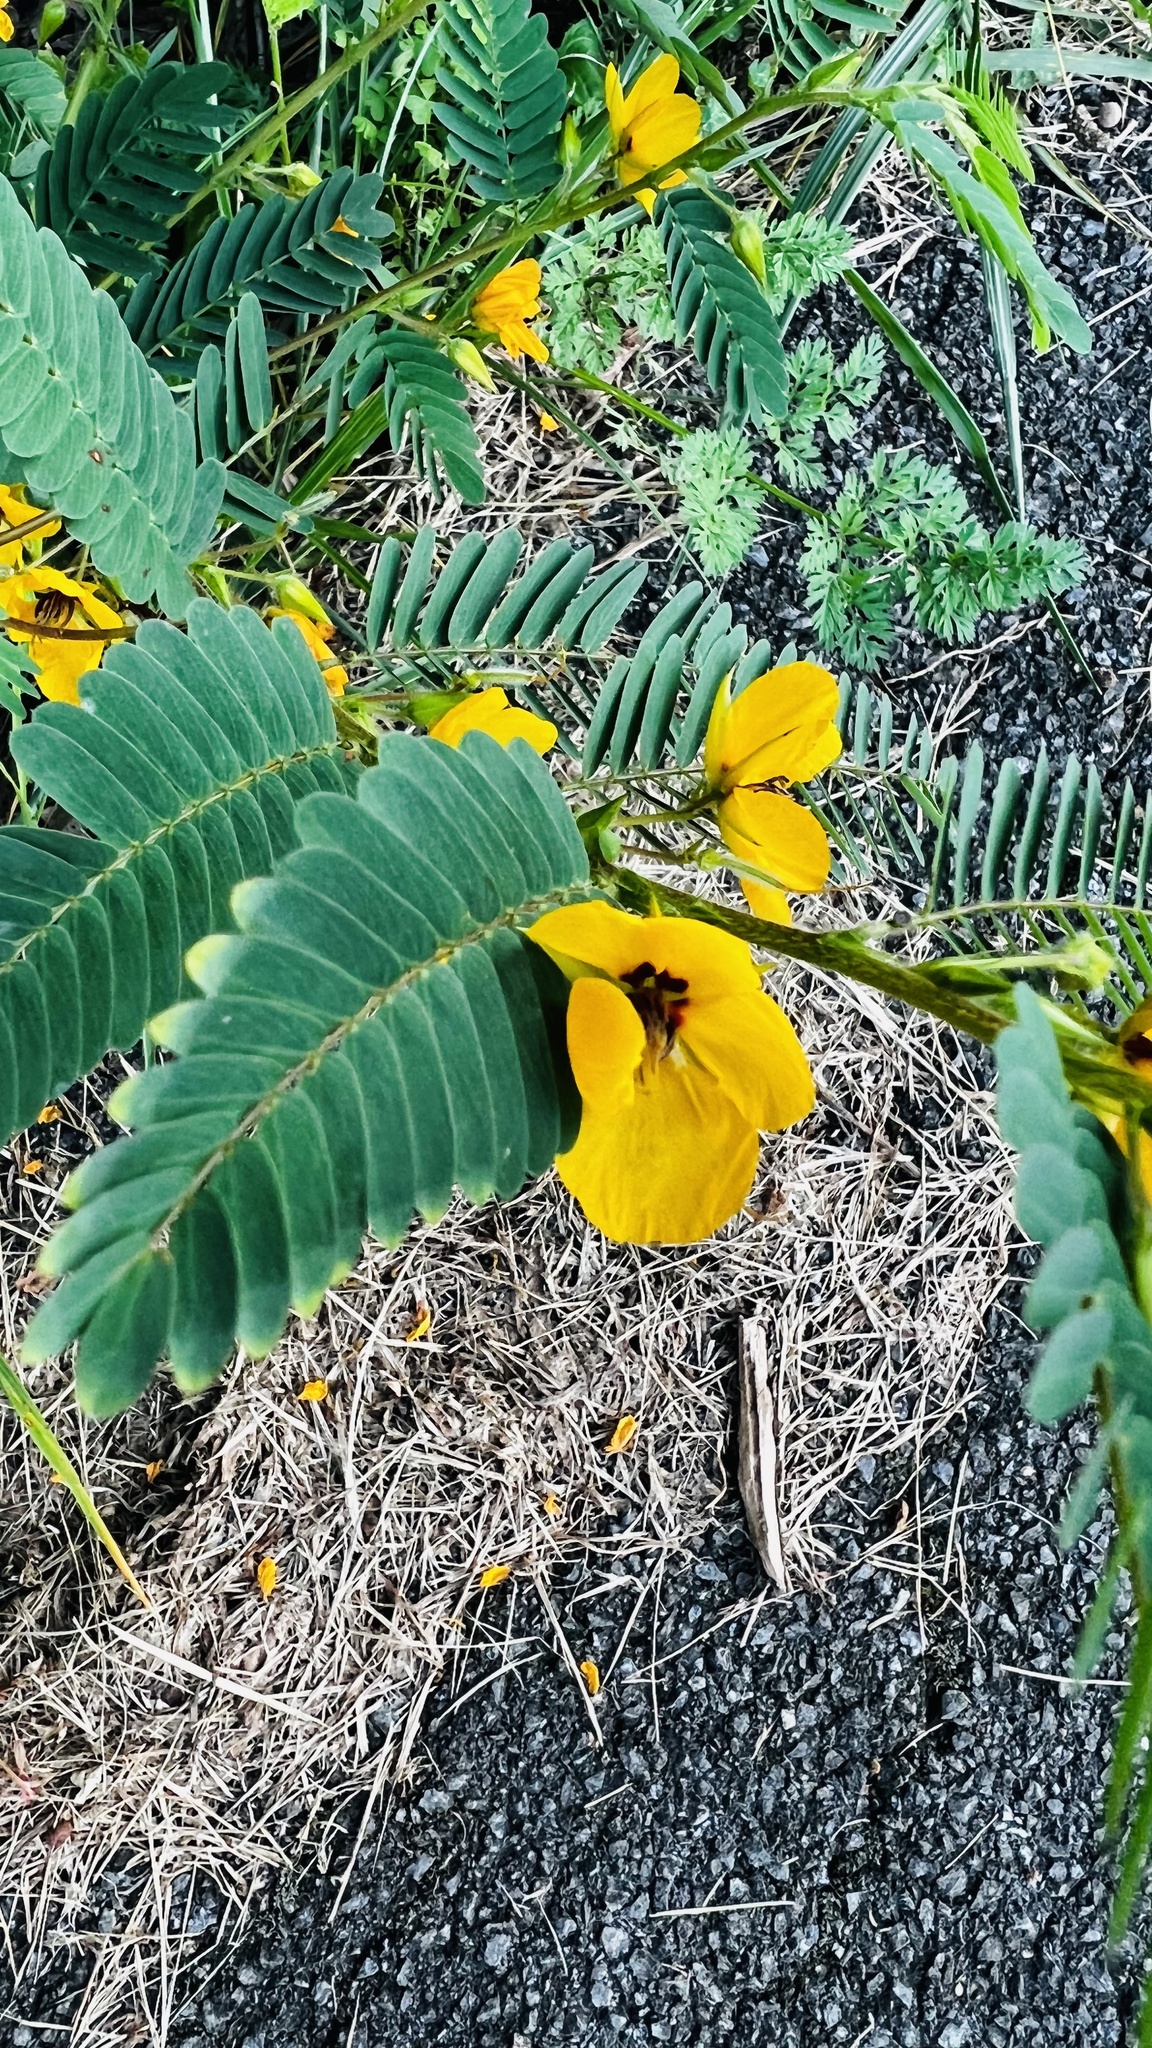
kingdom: Plantae
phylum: Tracheophyta
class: Magnoliopsida
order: Fabales
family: Fabaceae
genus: Chamaecrista
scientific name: Chamaecrista fasciculata
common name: Golden cassia
